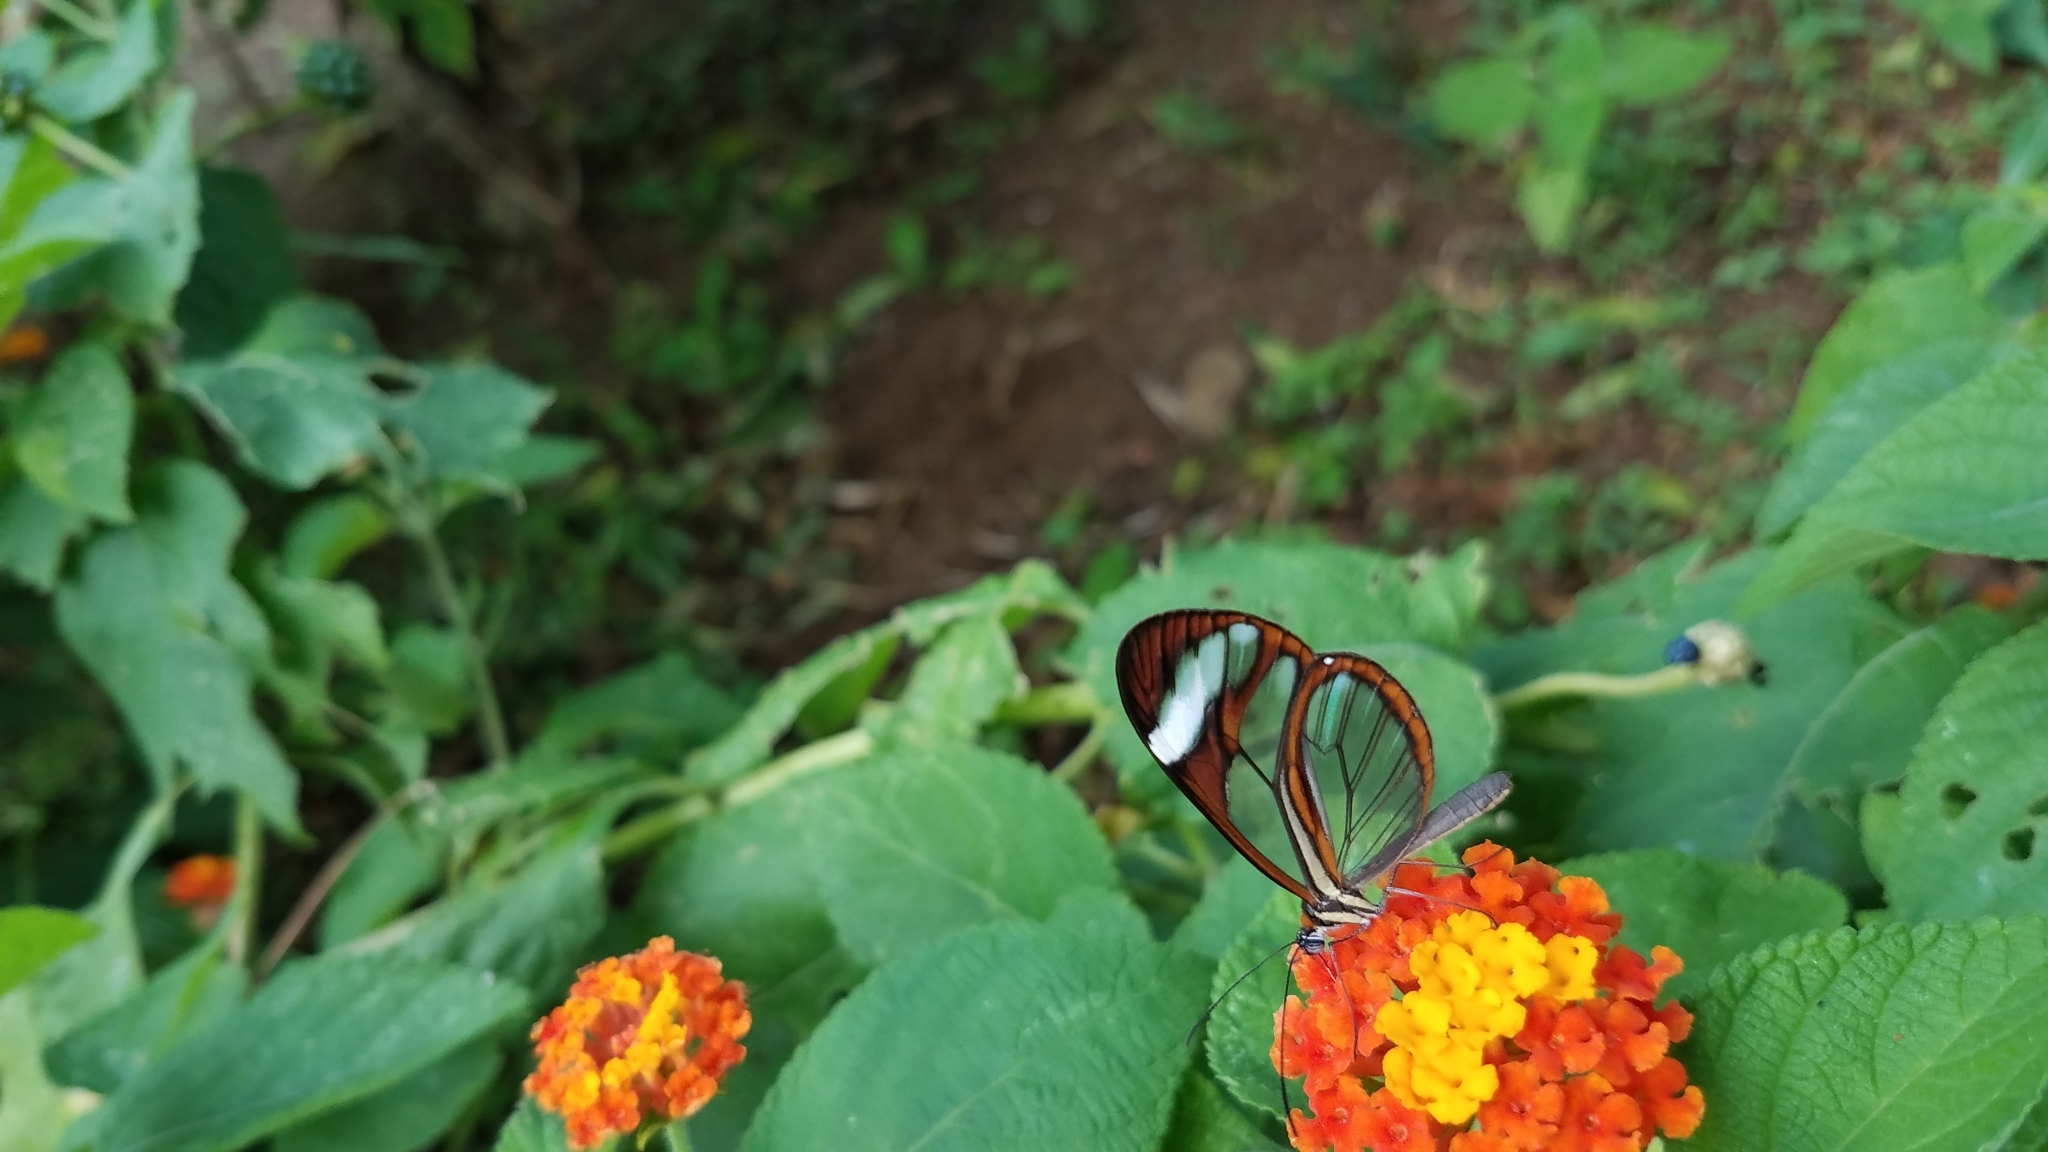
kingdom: Animalia
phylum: Arthropoda
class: Insecta
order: Lepidoptera
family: Nymphalidae
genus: Greta
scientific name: Greta morgane
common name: Thick-tipped greta
